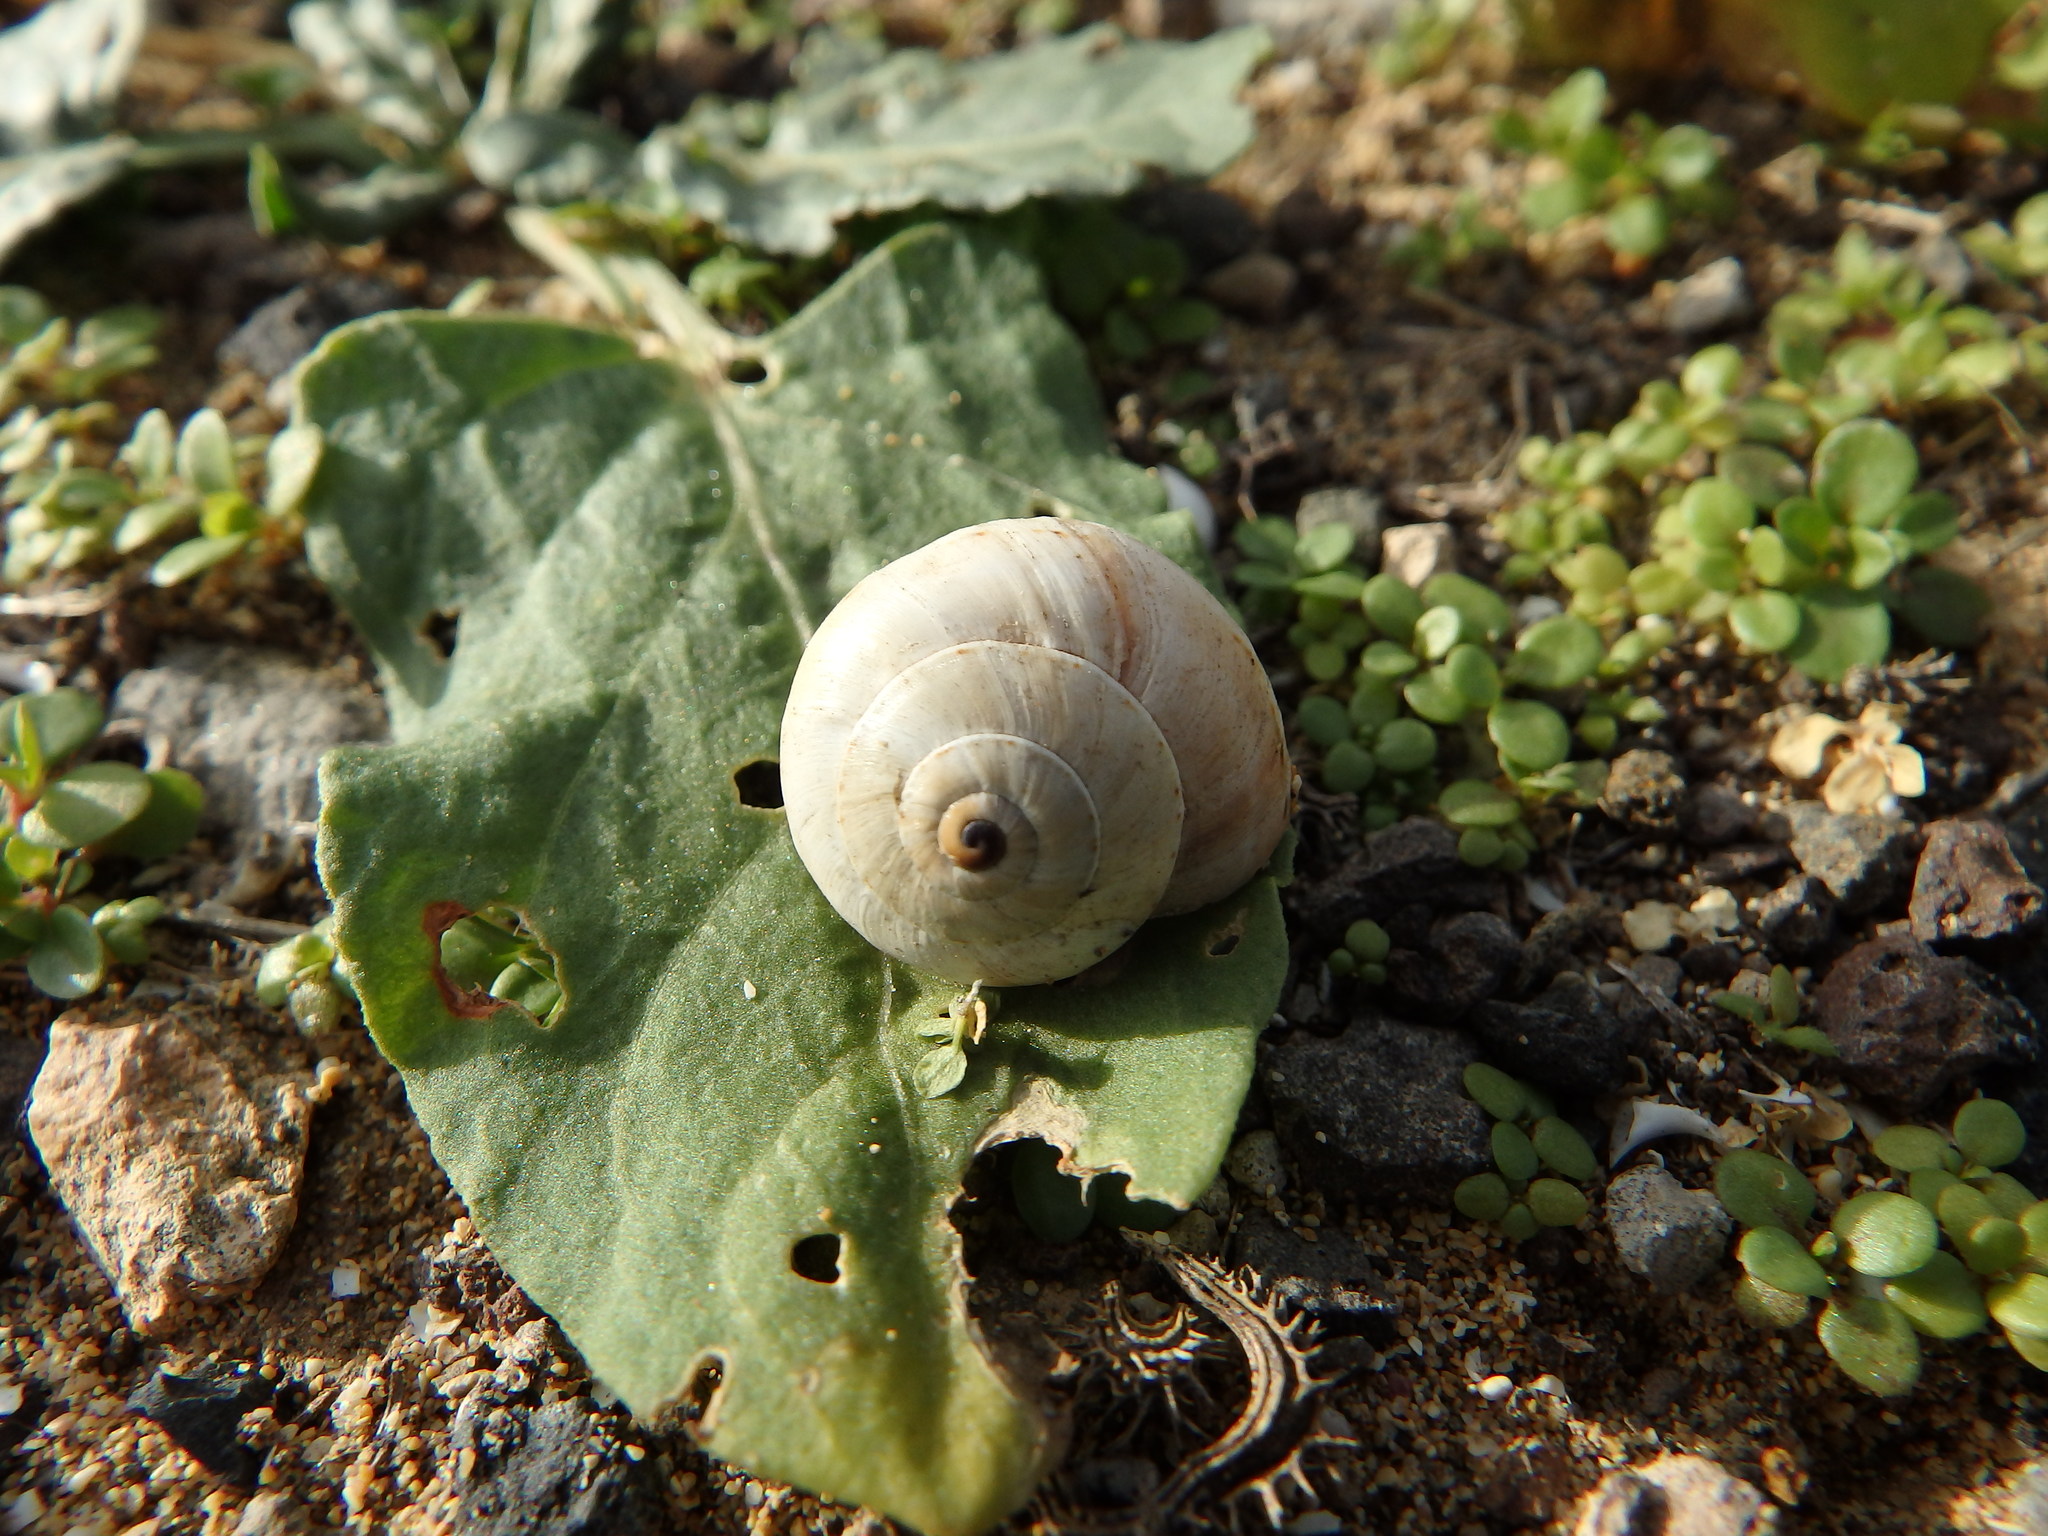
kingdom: Animalia
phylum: Mollusca
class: Gastropoda
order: Stylommatophora
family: Helicidae
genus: Theba
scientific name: Theba pisana
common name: White snail
